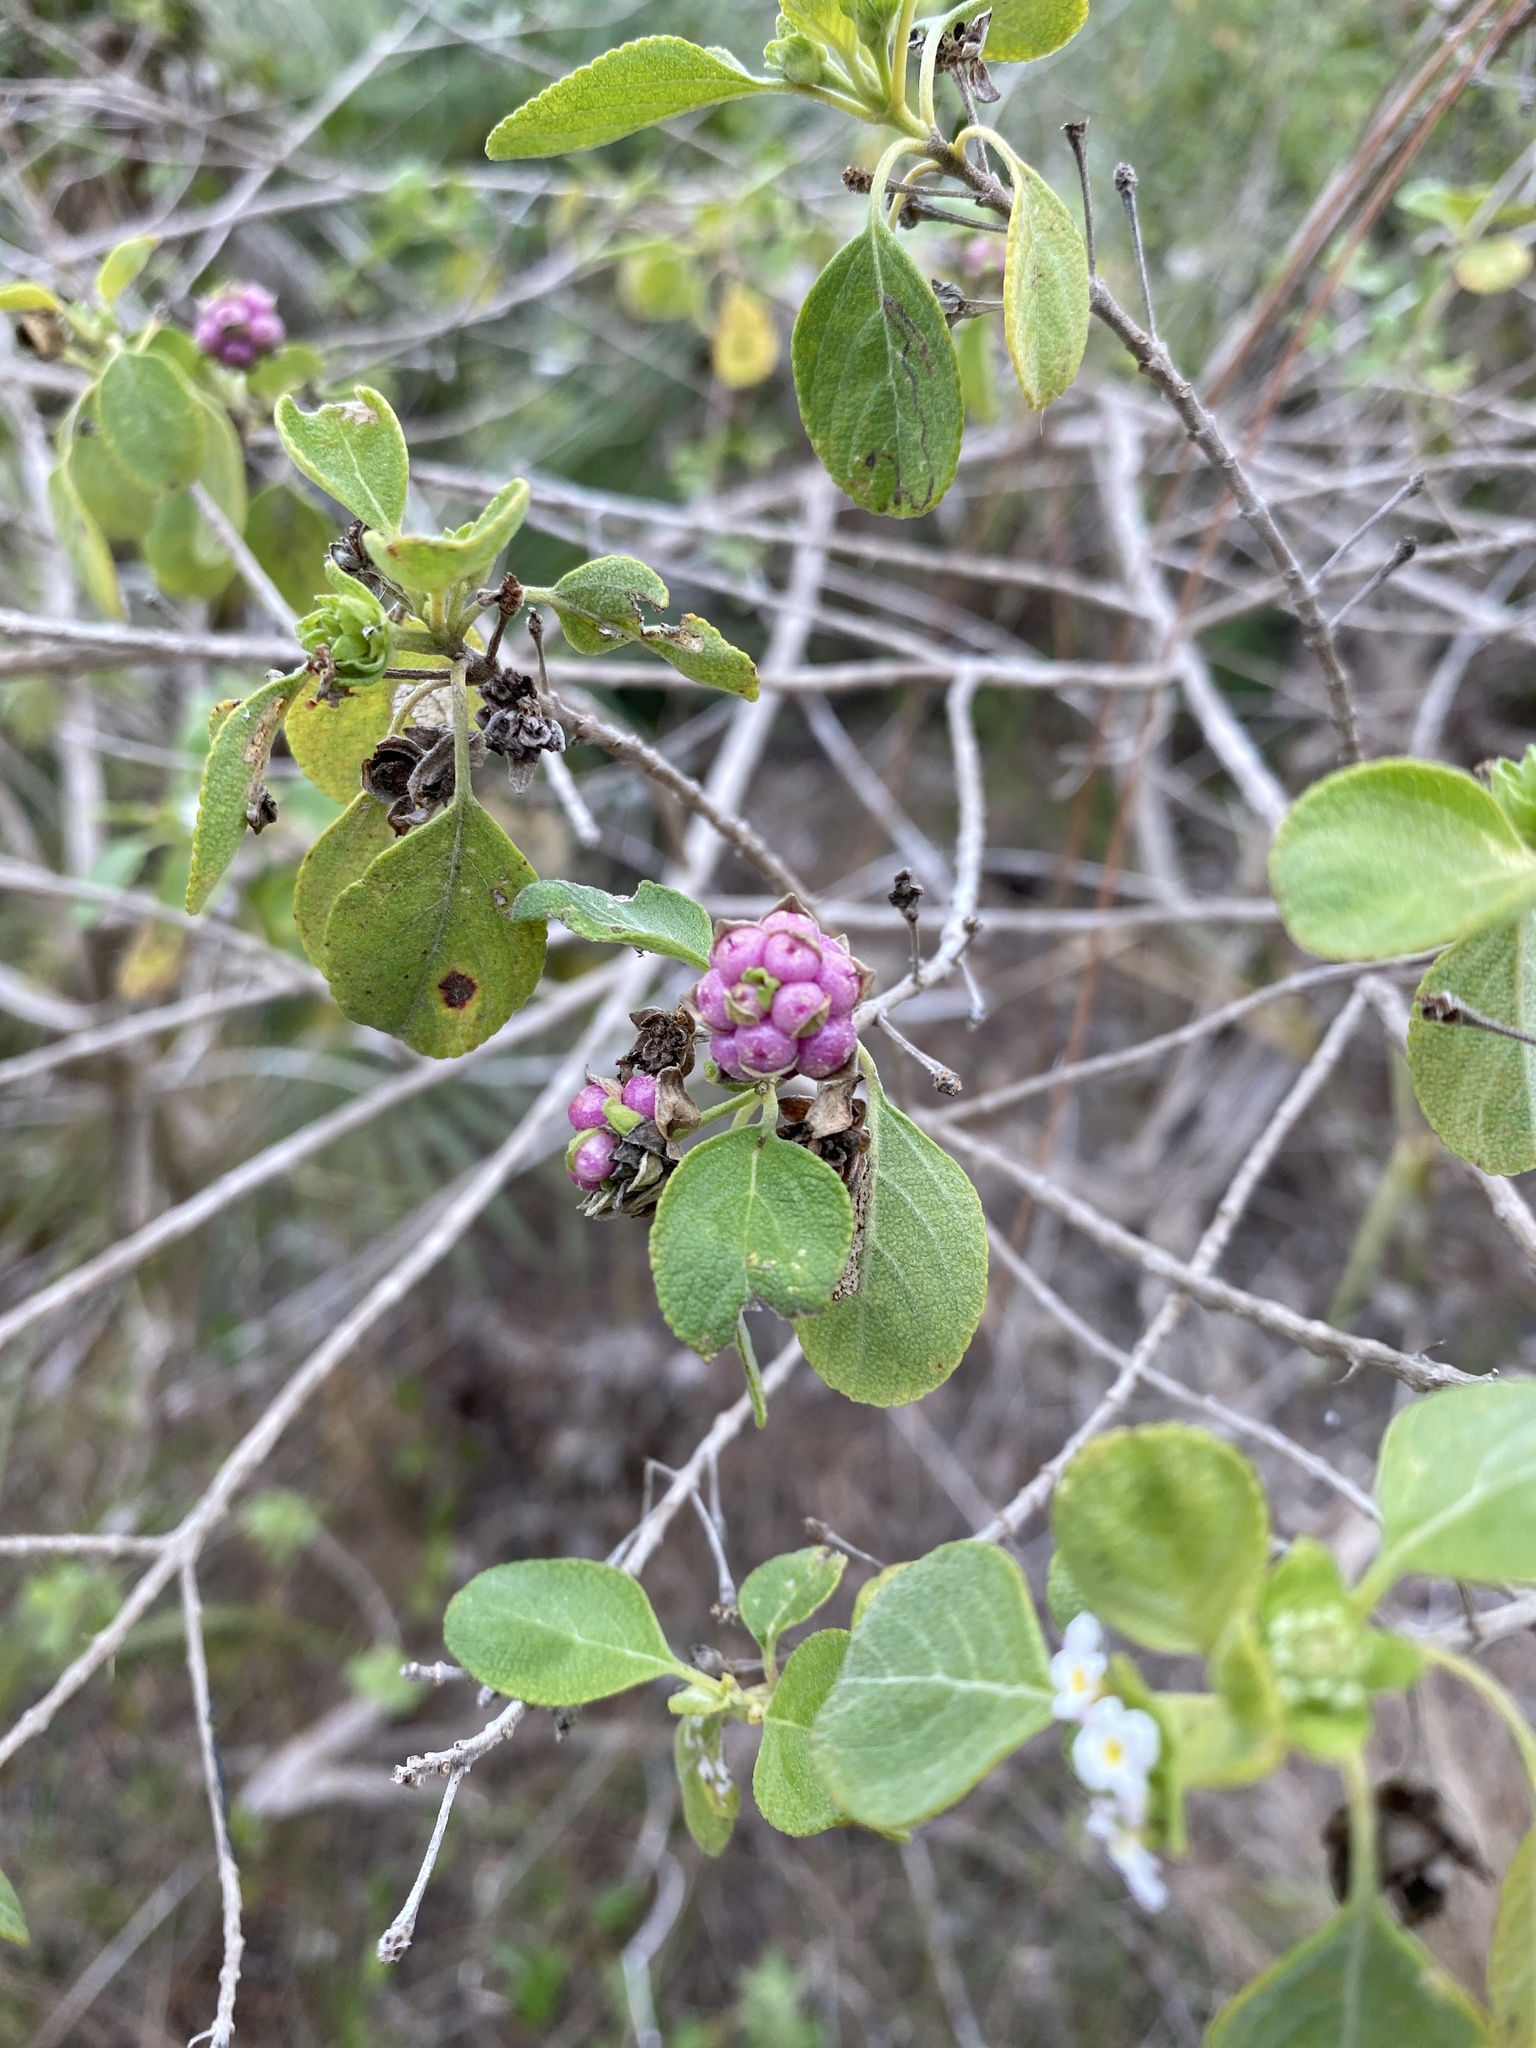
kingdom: Plantae
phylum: Tracheophyta
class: Magnoliopsida
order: Lamiales
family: Verbenaceae
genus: Lantana
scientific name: Lantana involucrata
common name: Black sage
